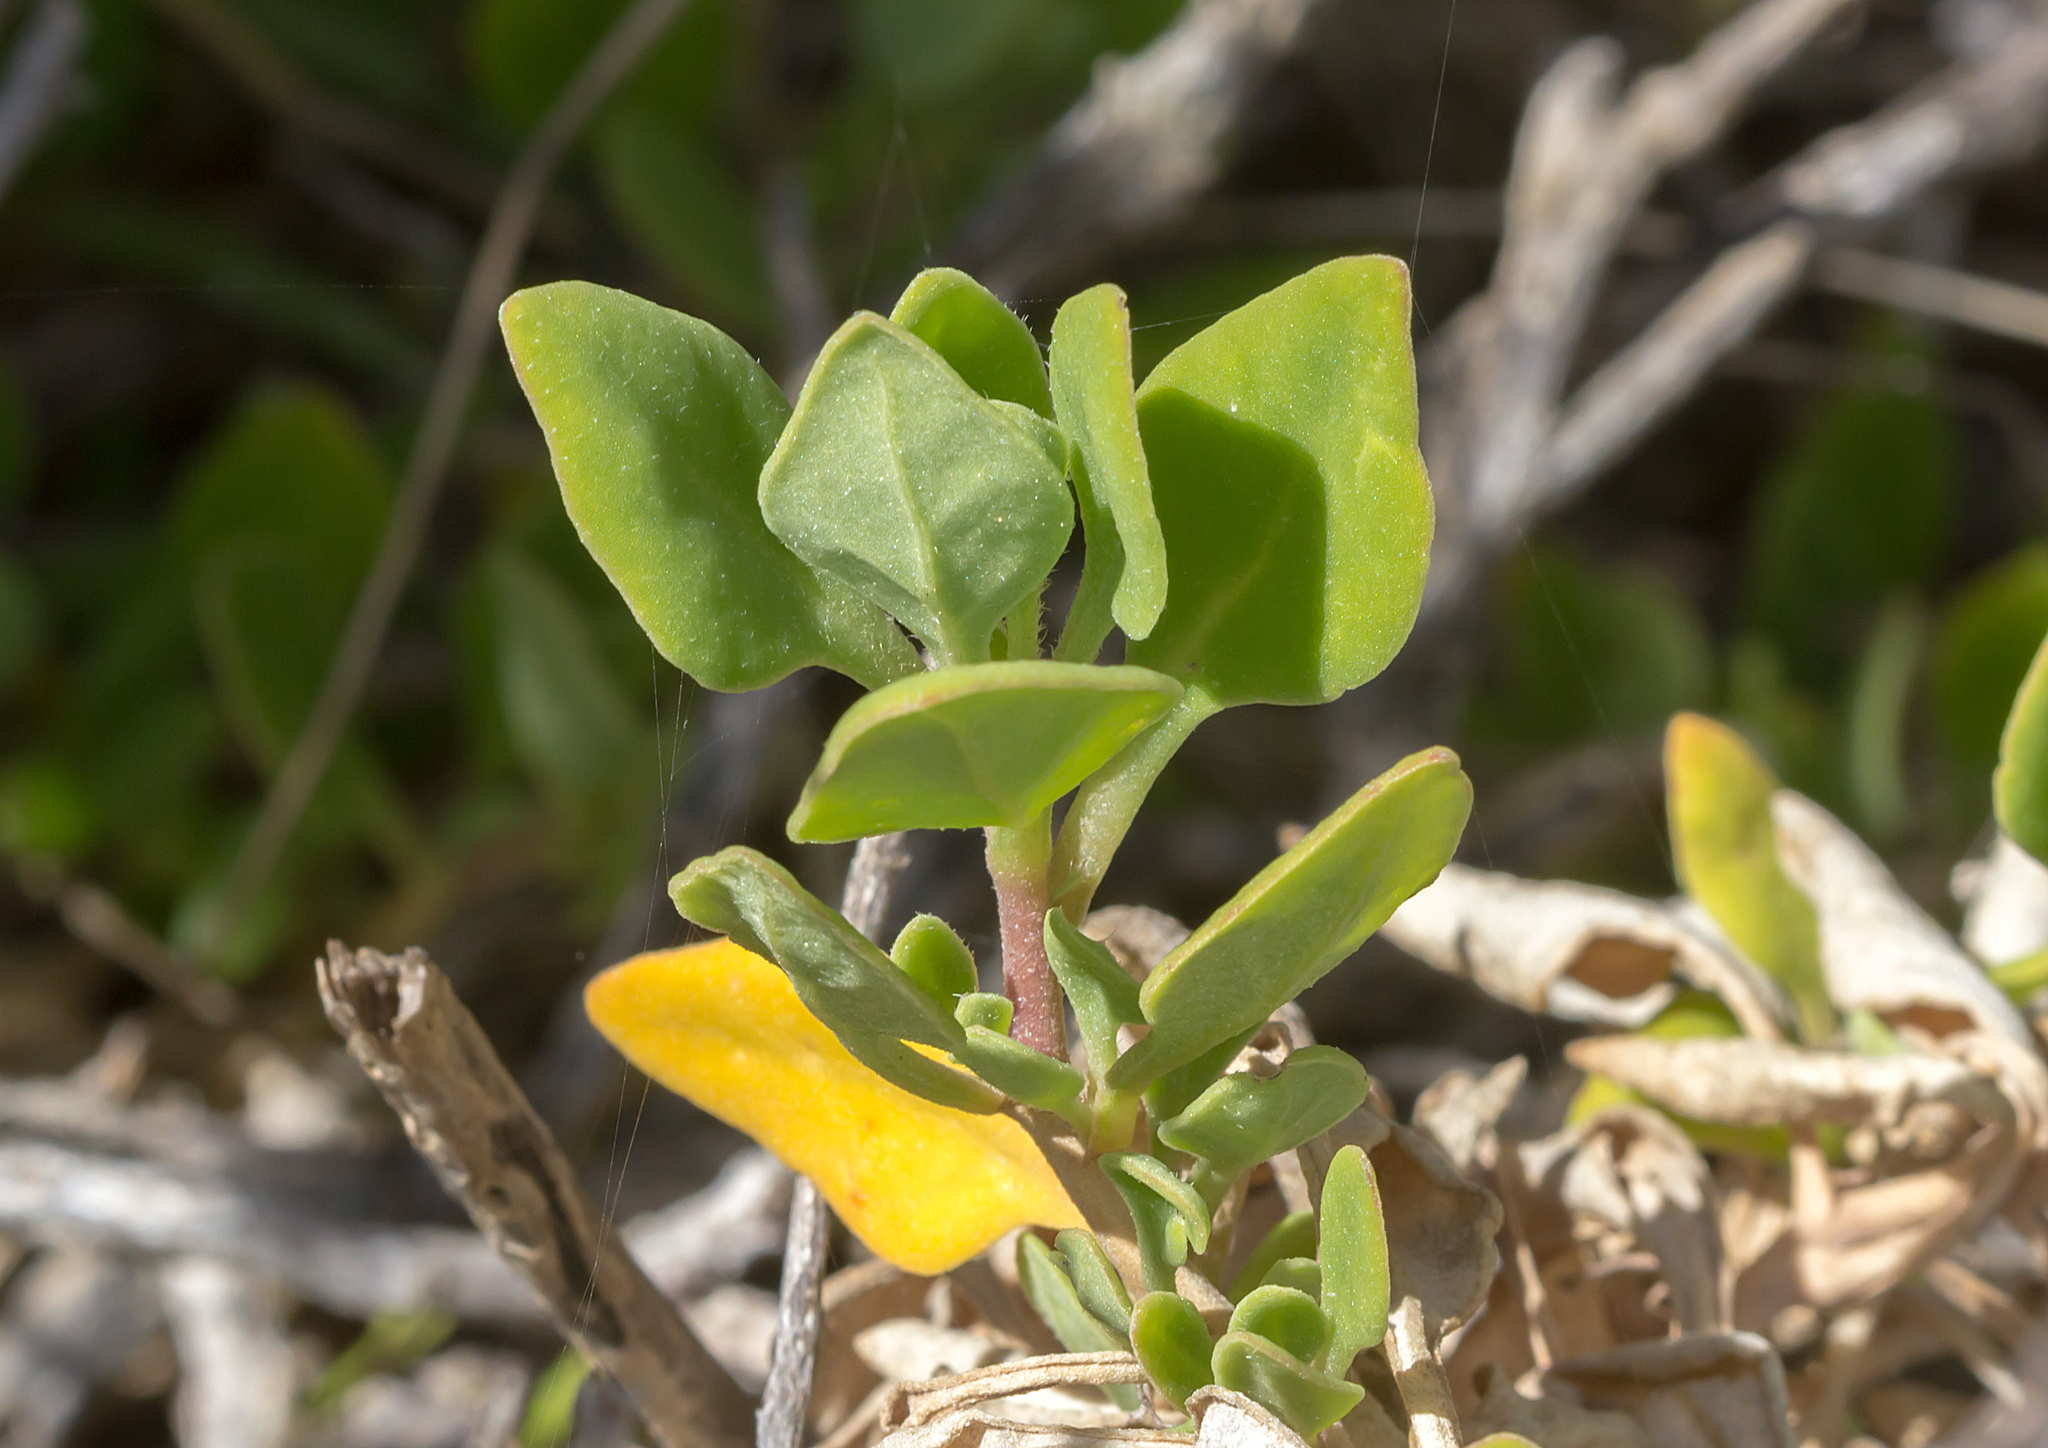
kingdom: Plantae
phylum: Tracheophyta
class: Magnoliopsida
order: Caryophyllales
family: Aizoaceae
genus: Tetragonia
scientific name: Tetragonia implexicoma
